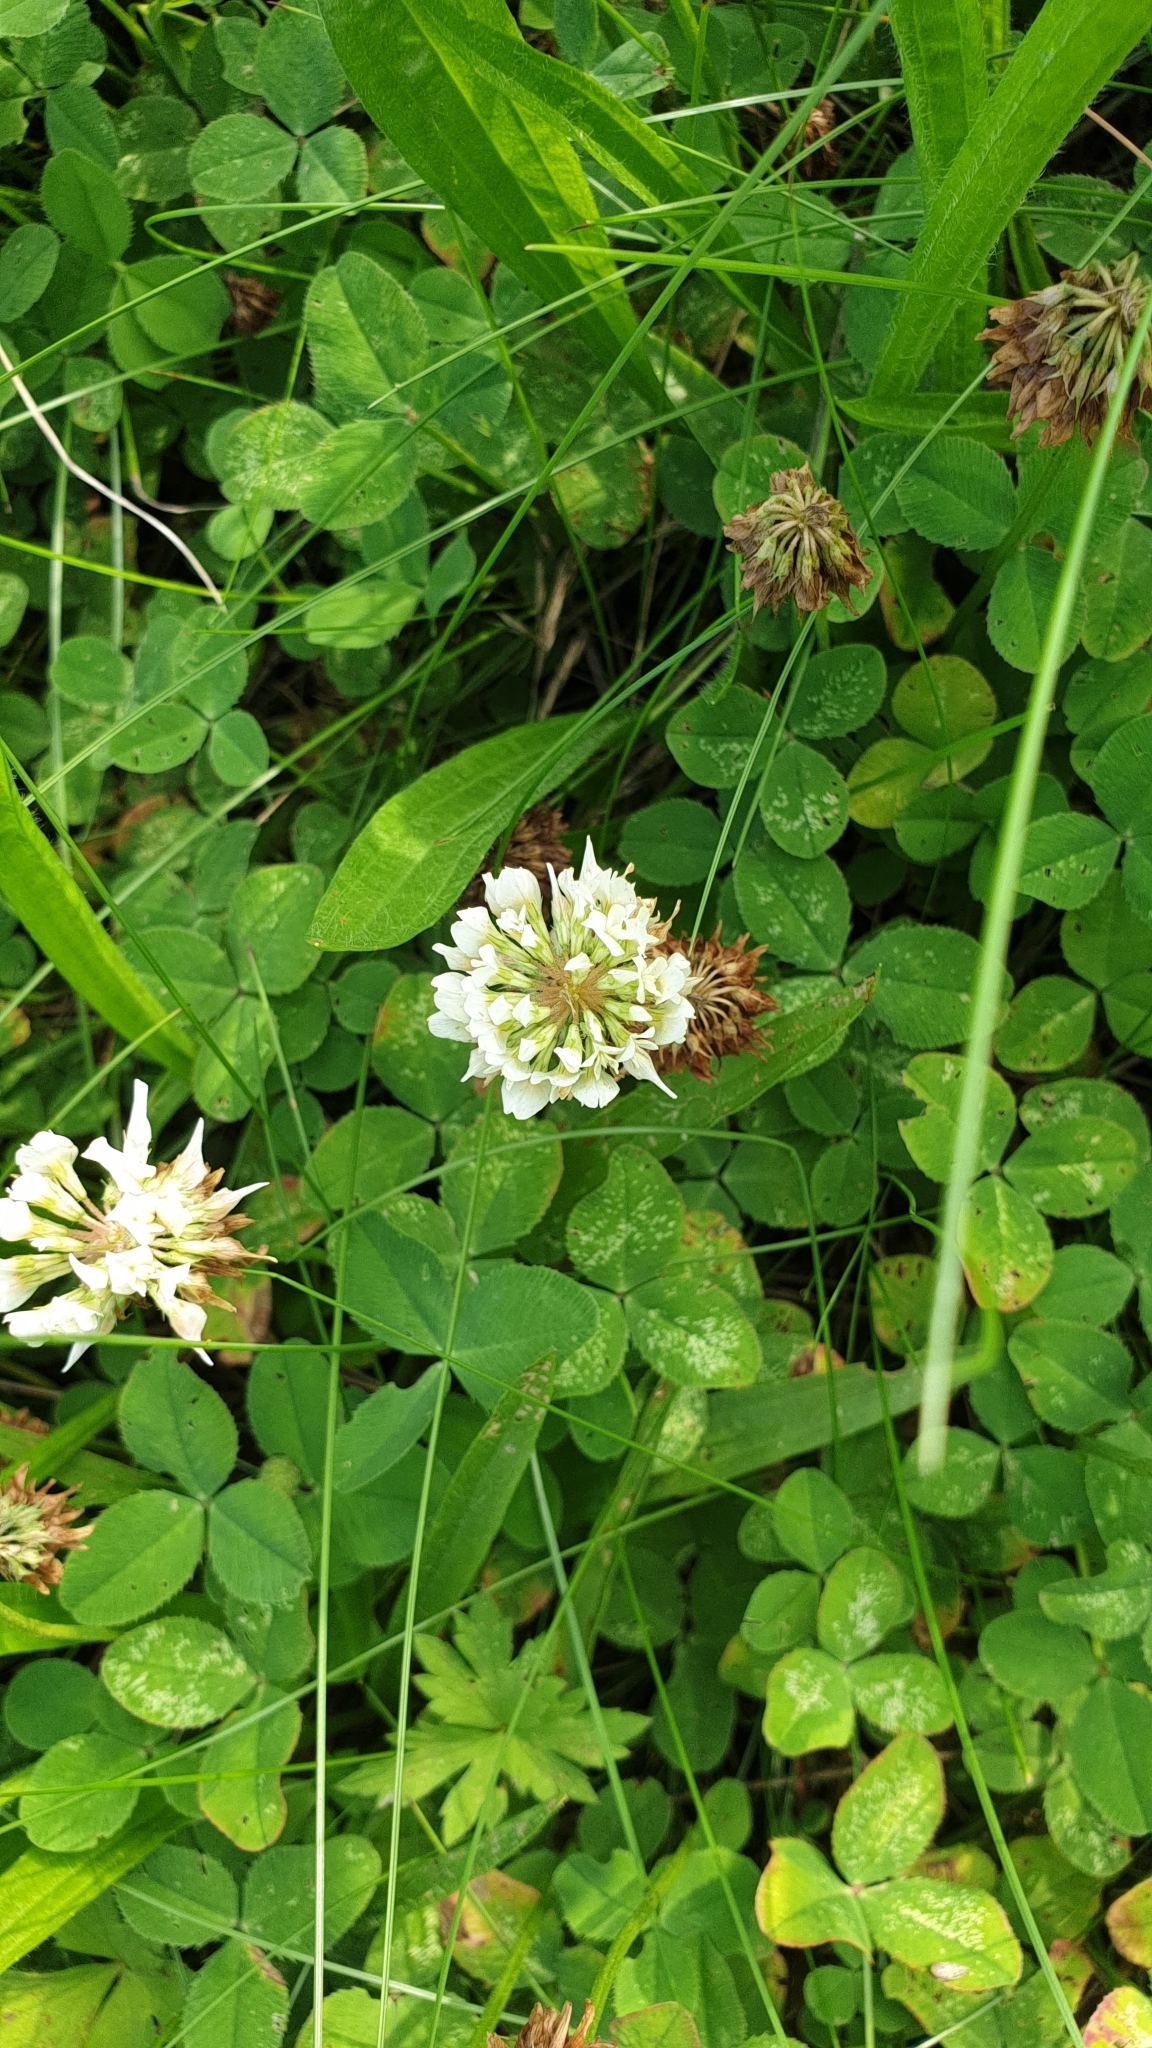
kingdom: Plantae
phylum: Tracheophyta
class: Magnoliopsida
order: Fabales
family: Fabaceae
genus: Trifolium
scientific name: Trifolium repens
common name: White clover
